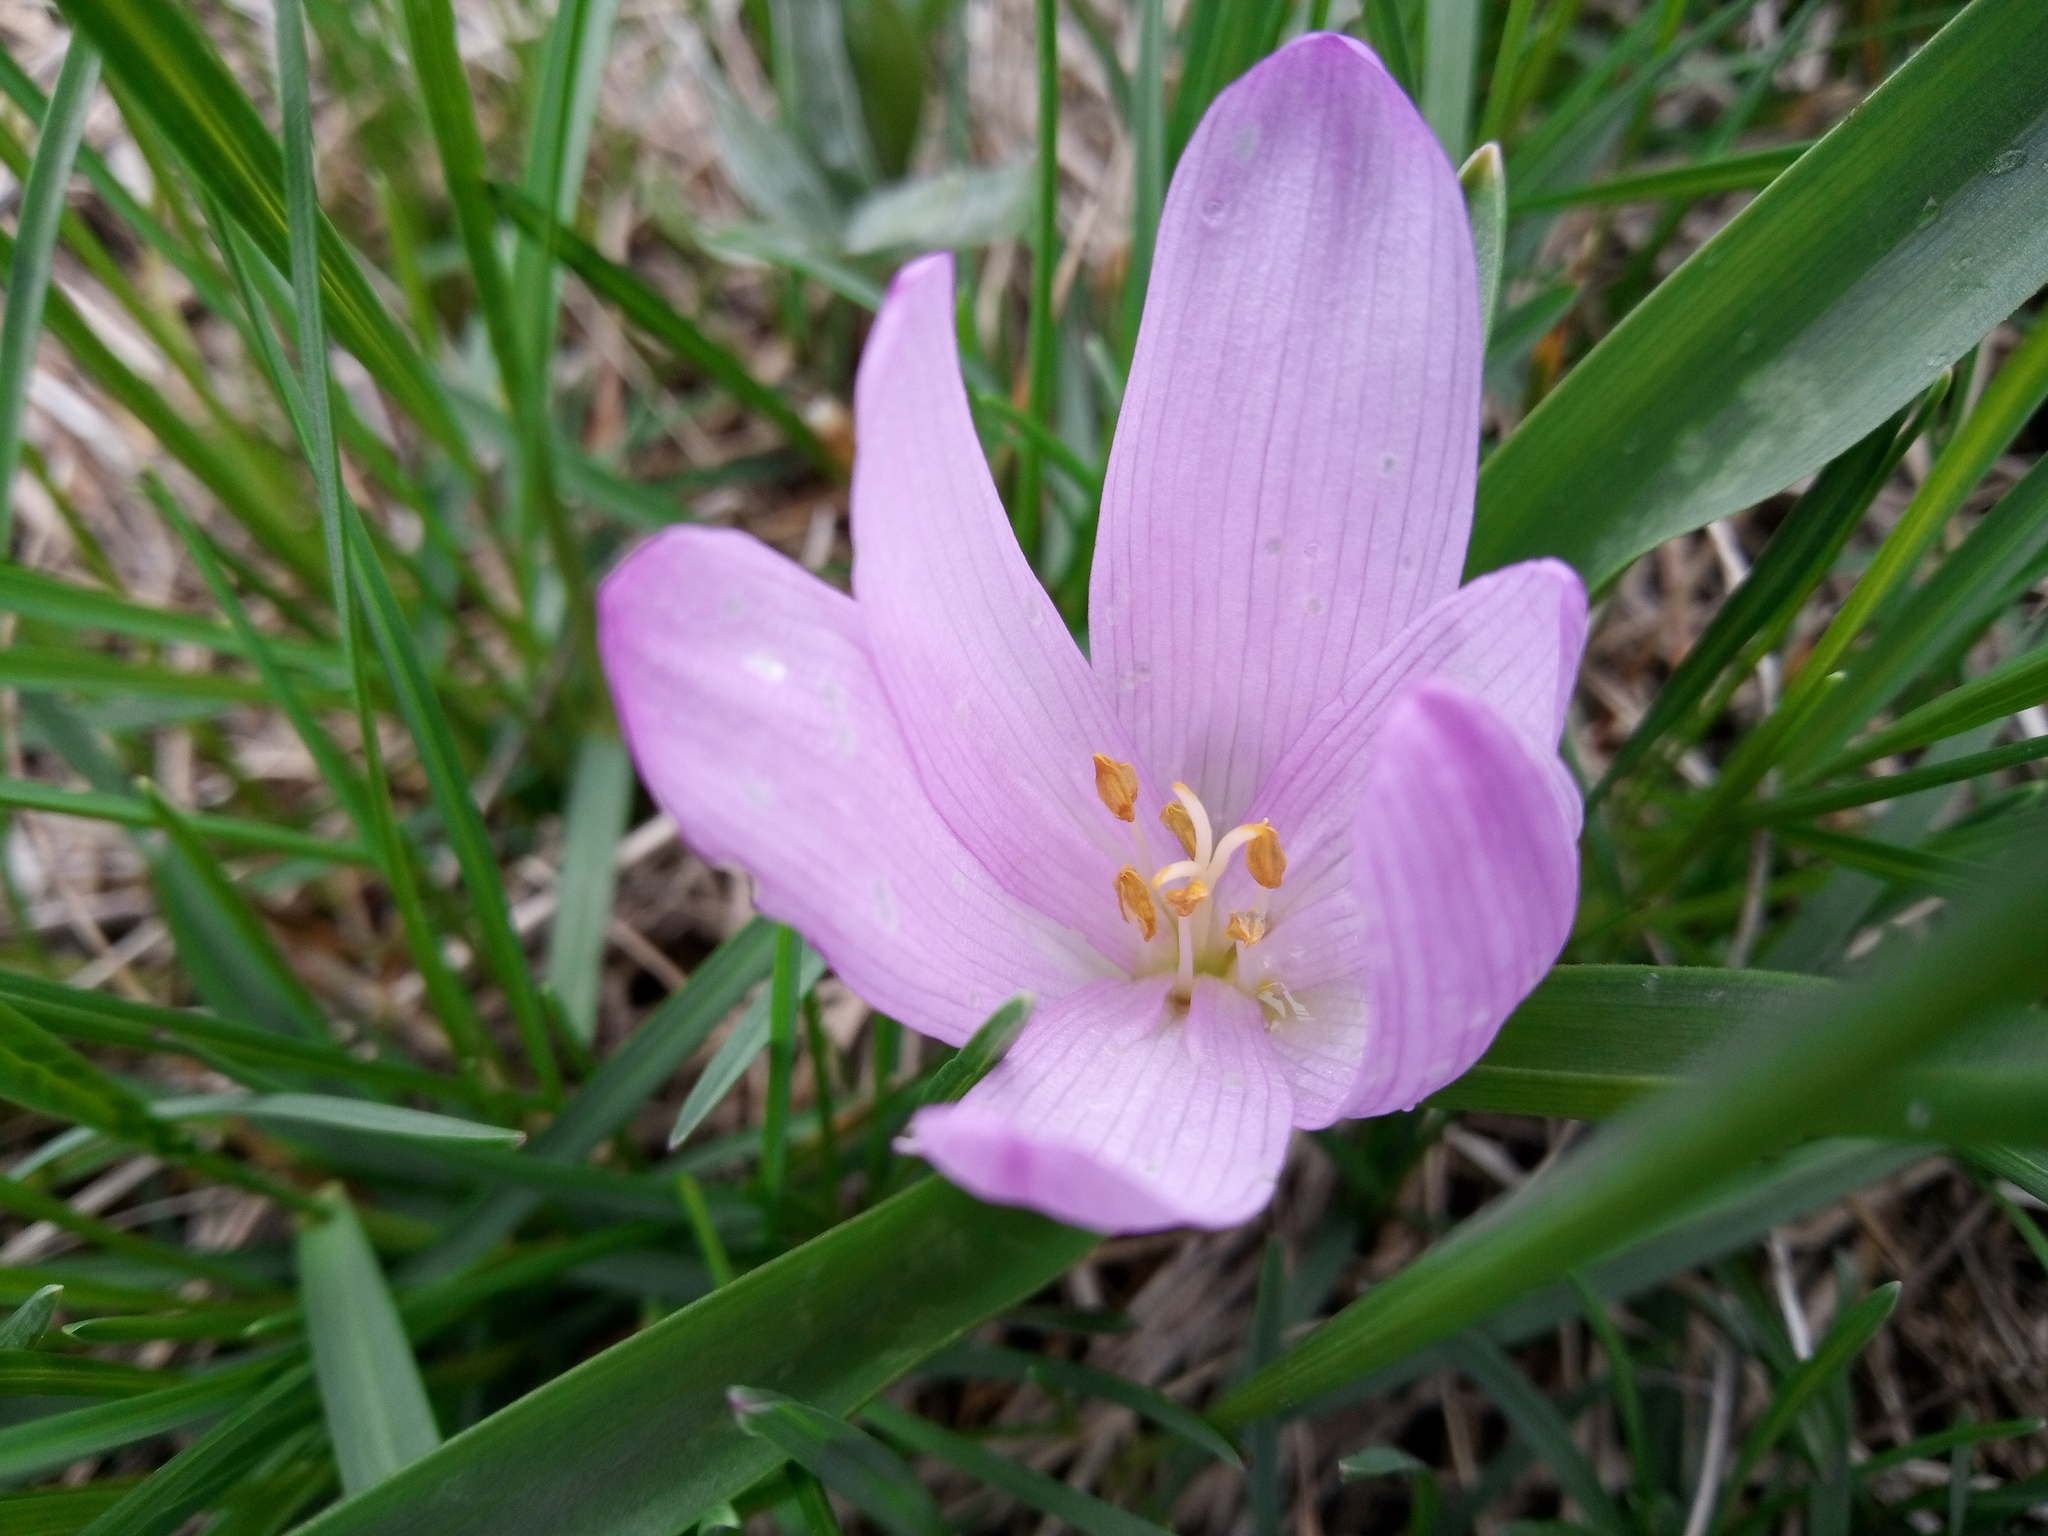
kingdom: Plantae
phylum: Tracheophyta
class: Liliopsida
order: Liliales
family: Colchicaceae
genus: Colchicum
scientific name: Colchicum bulbocodium
